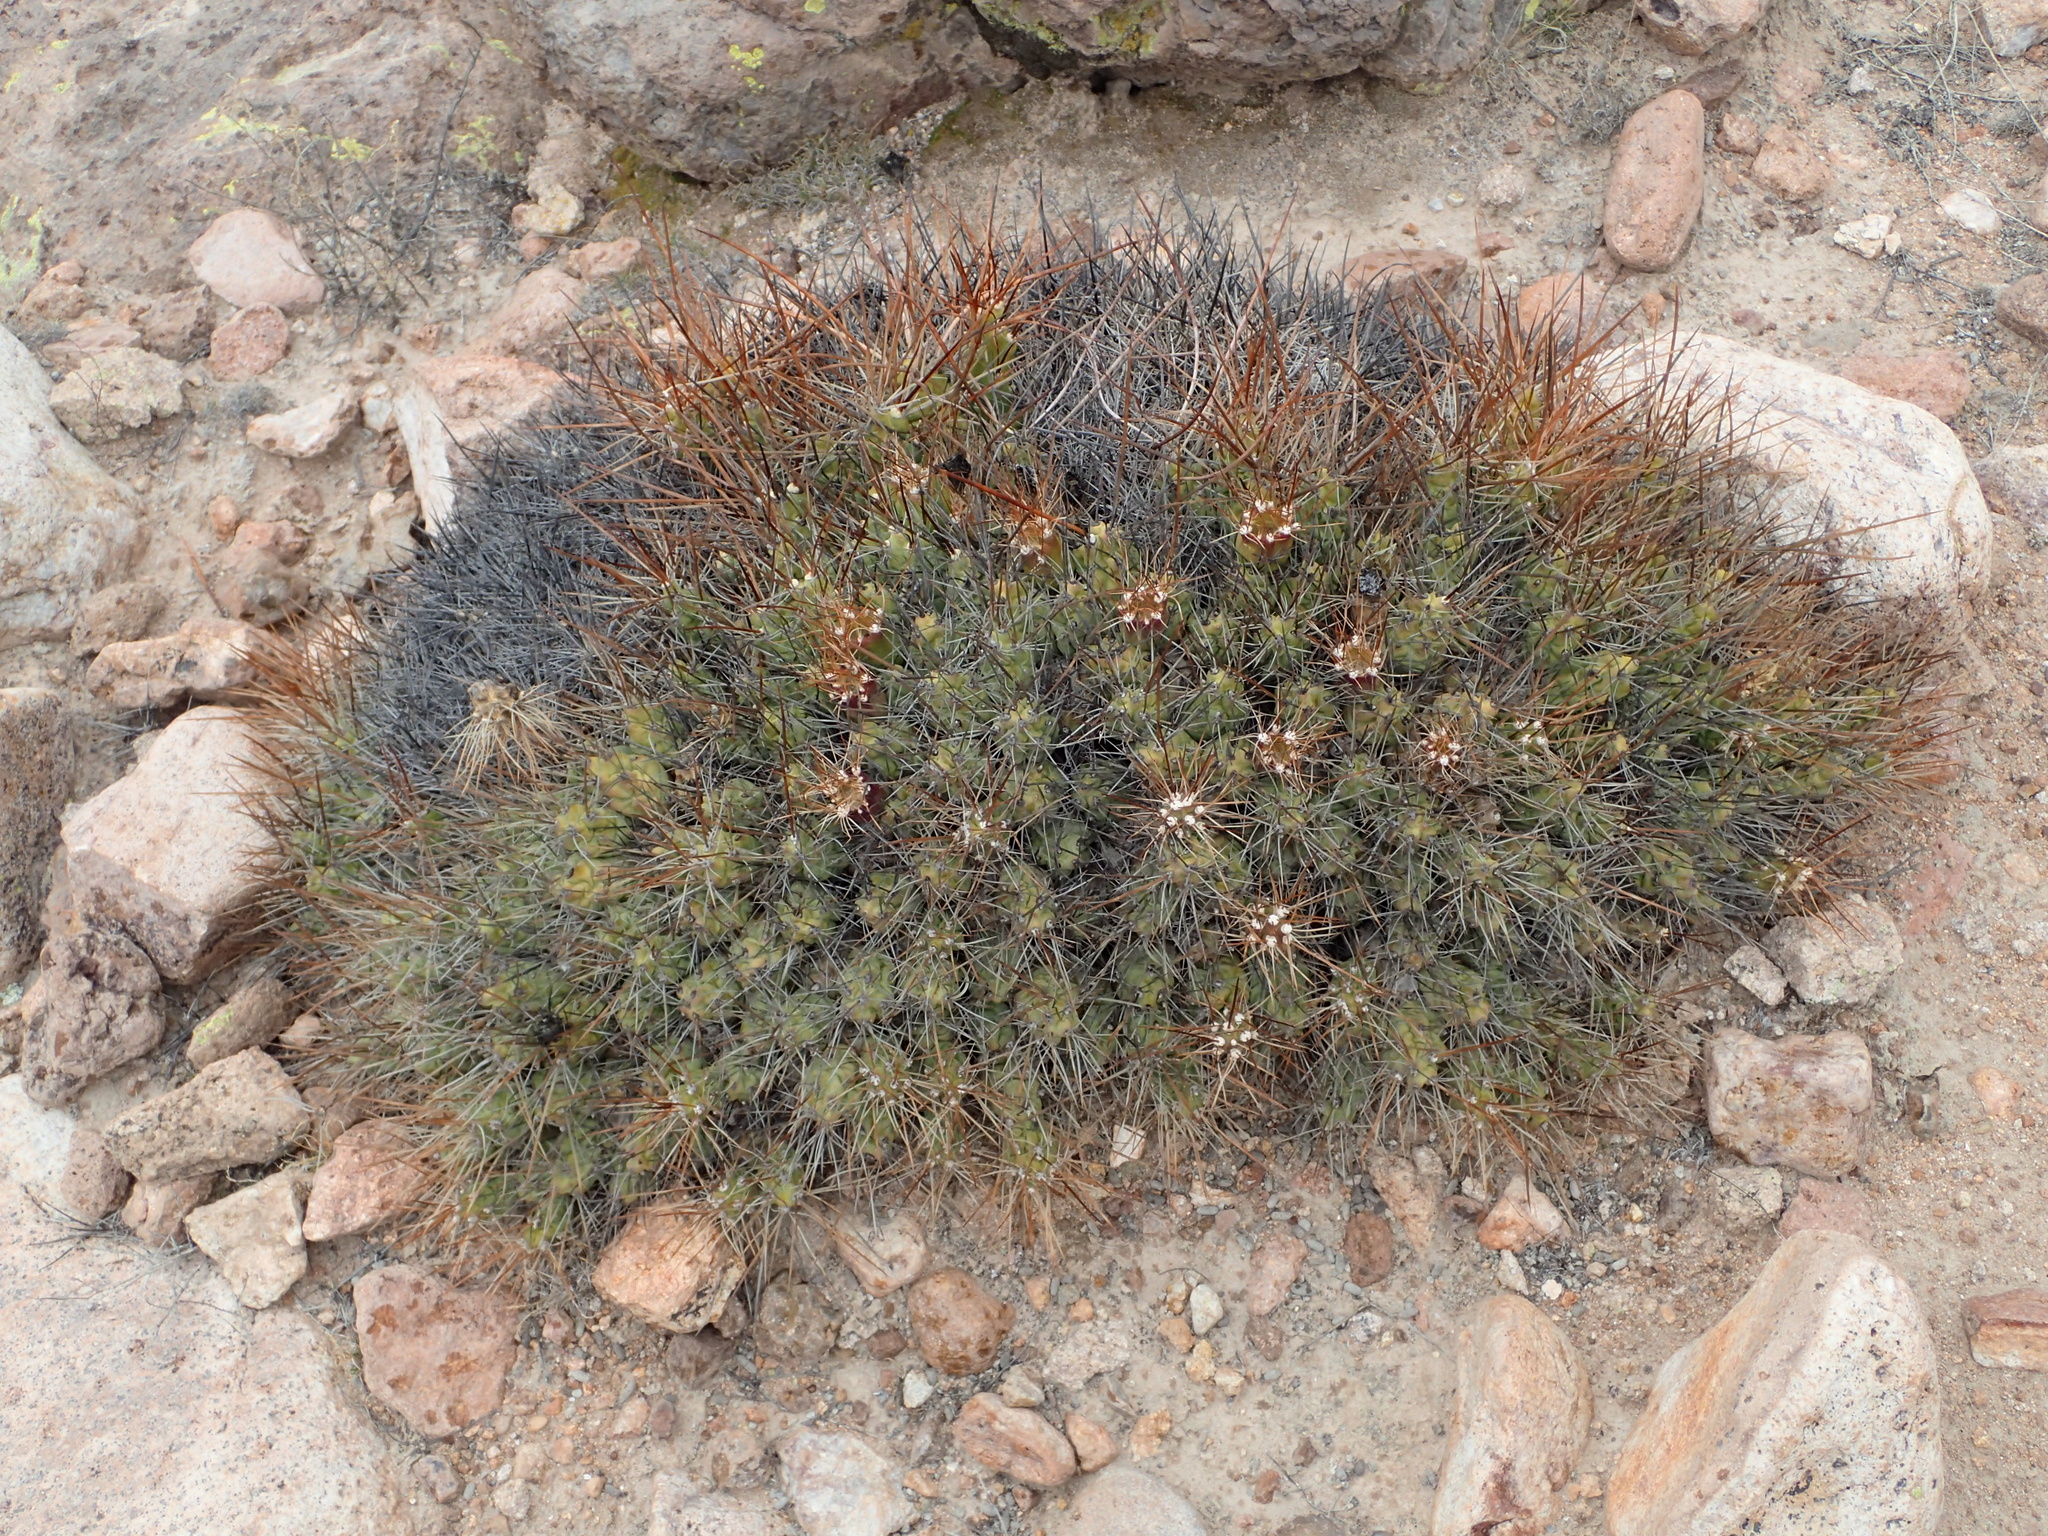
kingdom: Plantae
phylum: Tracheophyta
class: Magnoliopsida
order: Caryophyllales
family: Cactaceae
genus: Cumulopuntia
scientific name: Cumulopuntia boliviana
